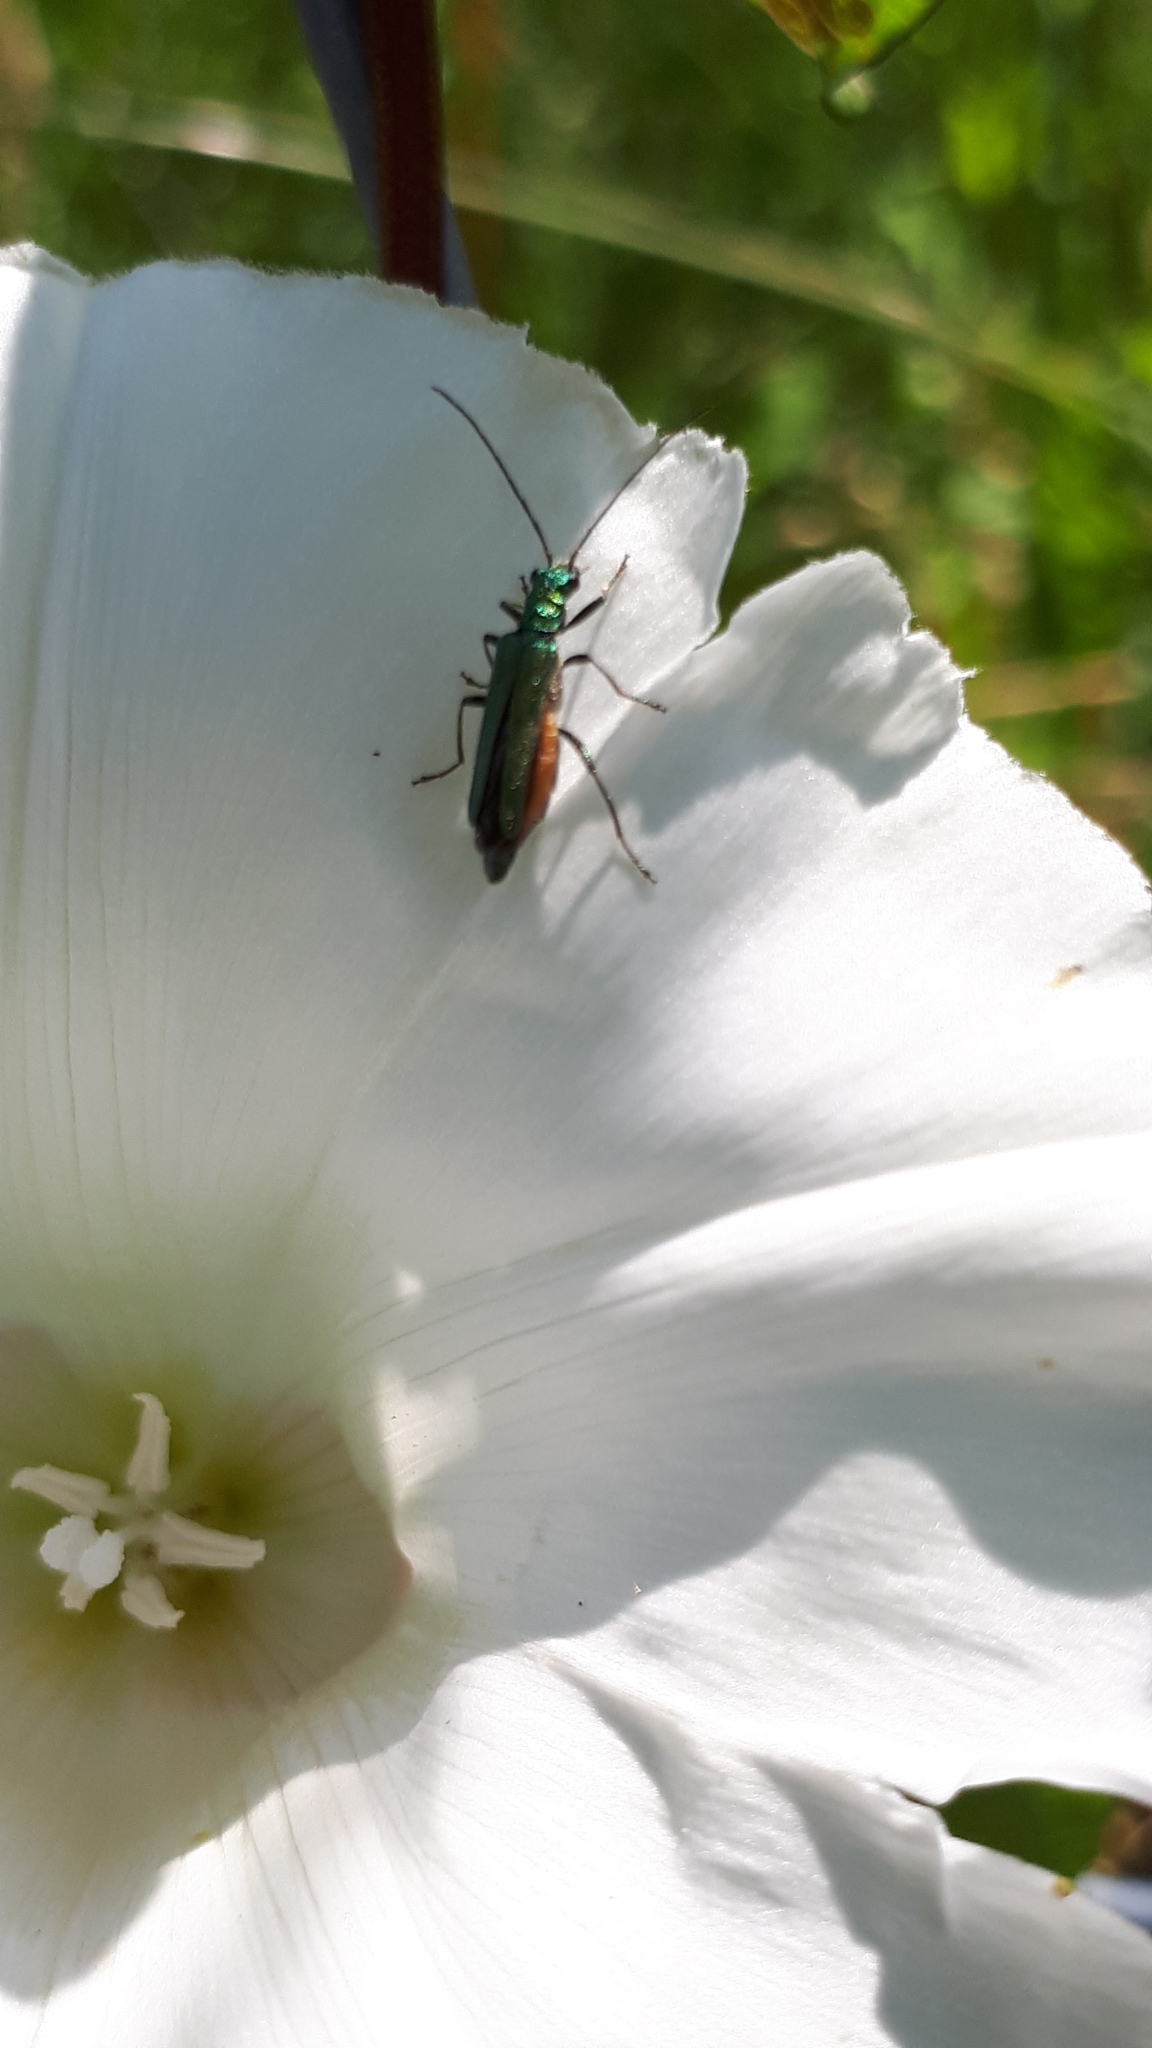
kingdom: Animalia
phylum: Arthropoda
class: Insecta
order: Coleoptera
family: Oedemeridae
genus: Oedemera
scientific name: Oedemera nobilis
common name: Swollen-thighed beetle
